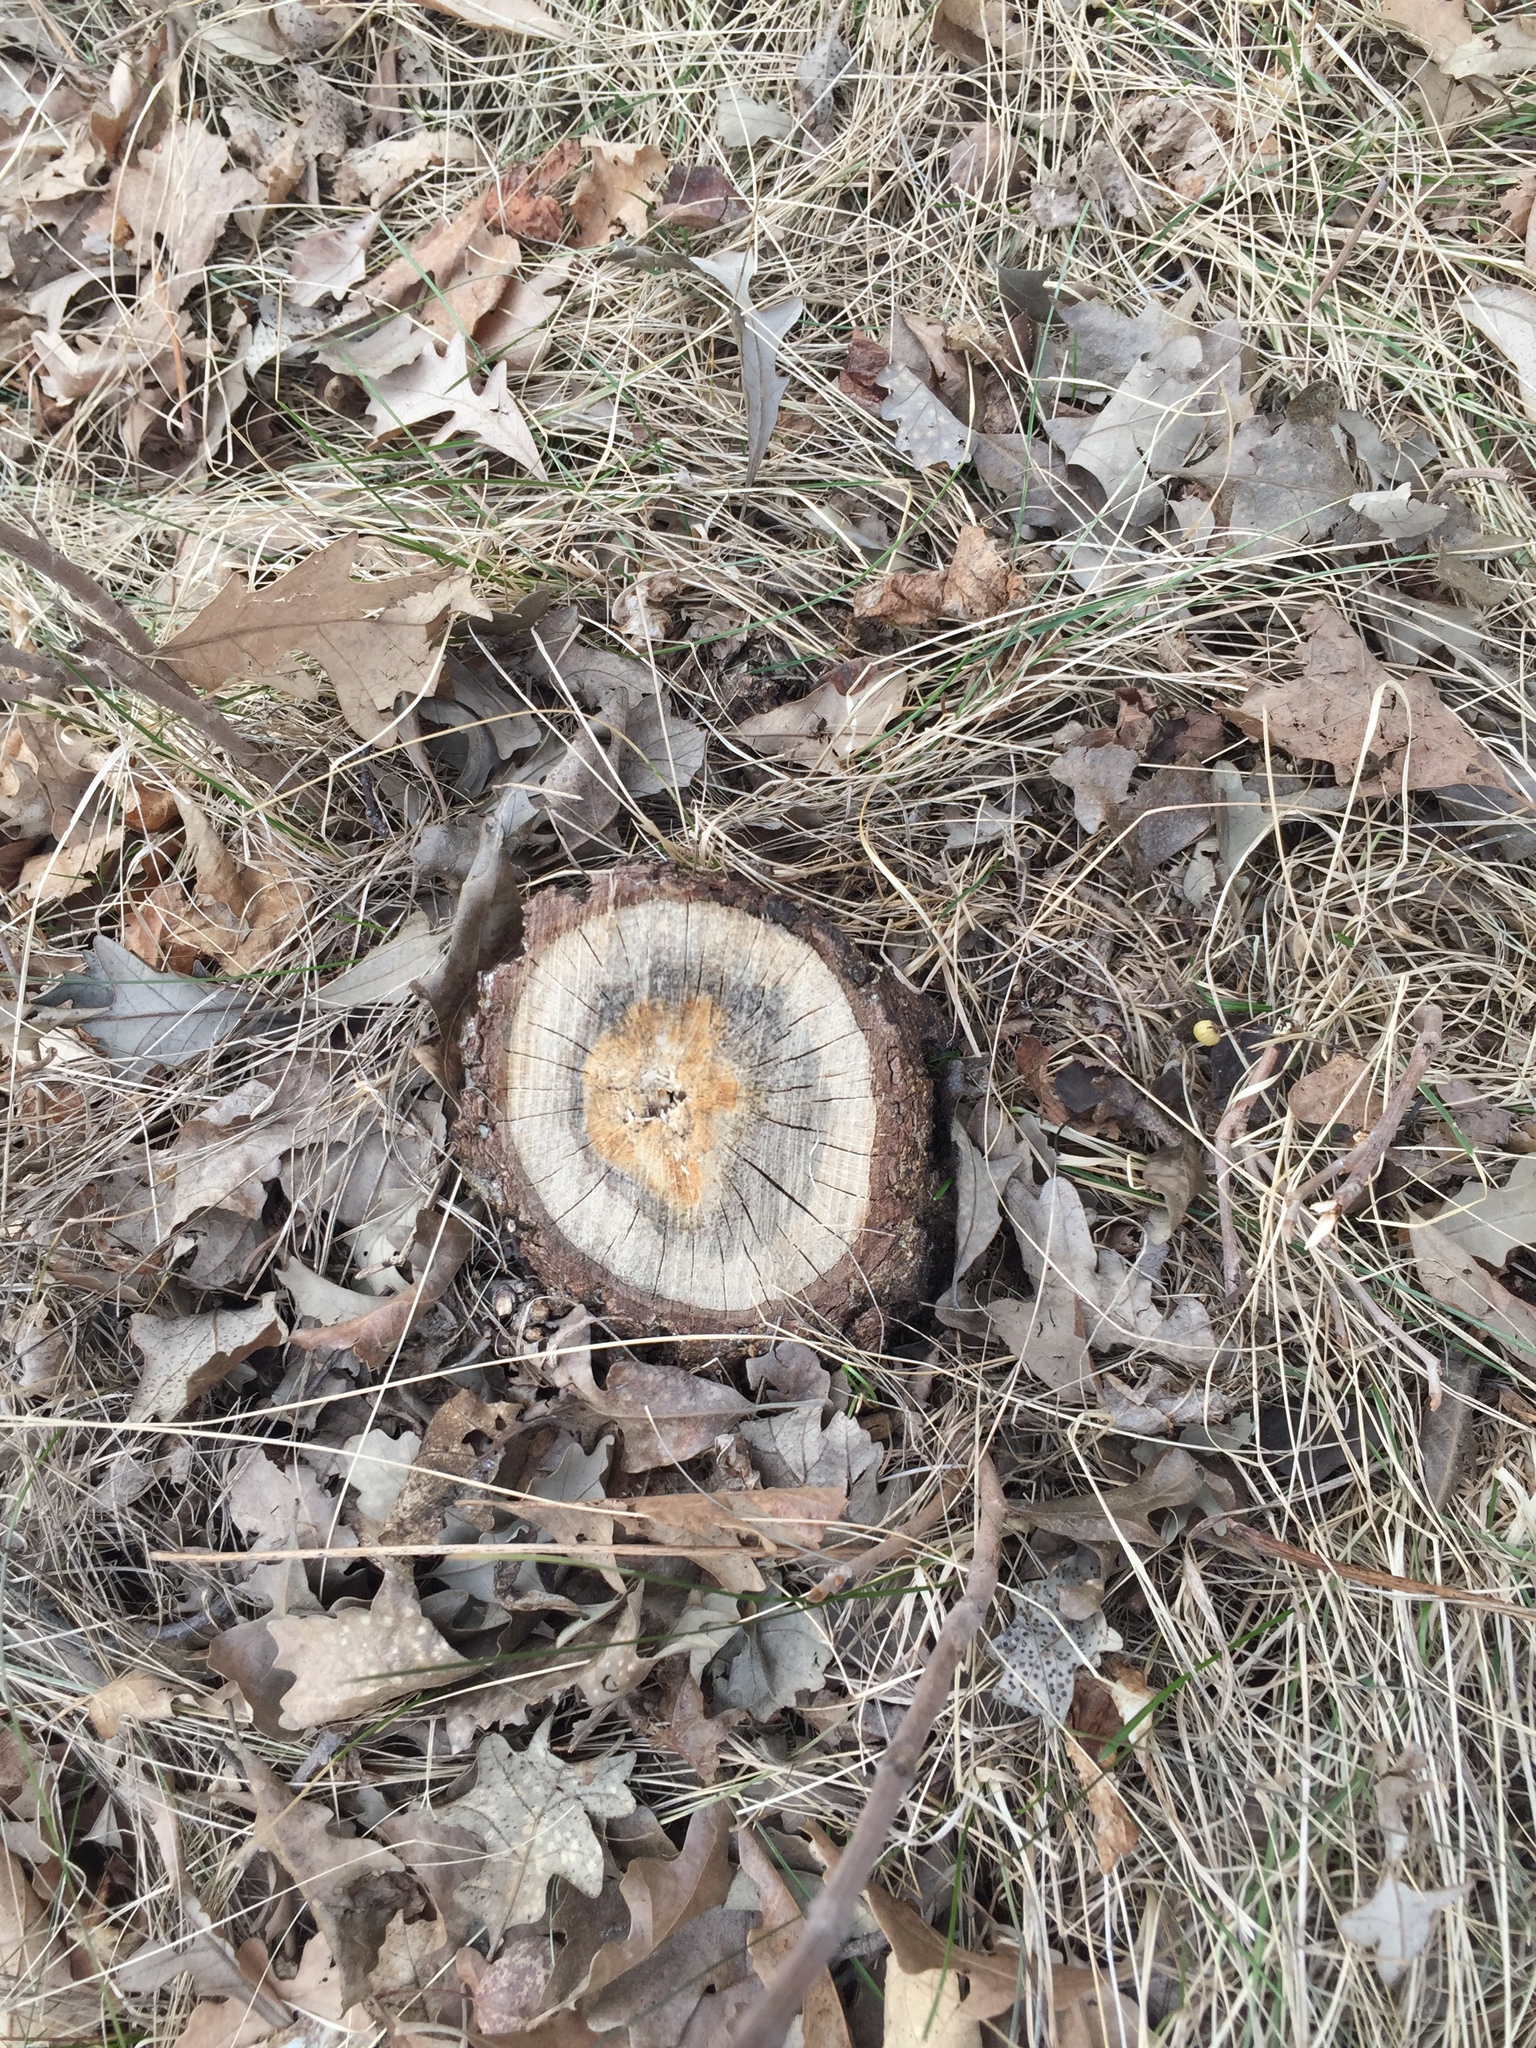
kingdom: Plantae
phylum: Tracheophyta
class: Magnoliopsida
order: Fagales
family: Fagaceae
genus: Quercus
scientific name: Quercus macrocarpa
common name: Bur oak
